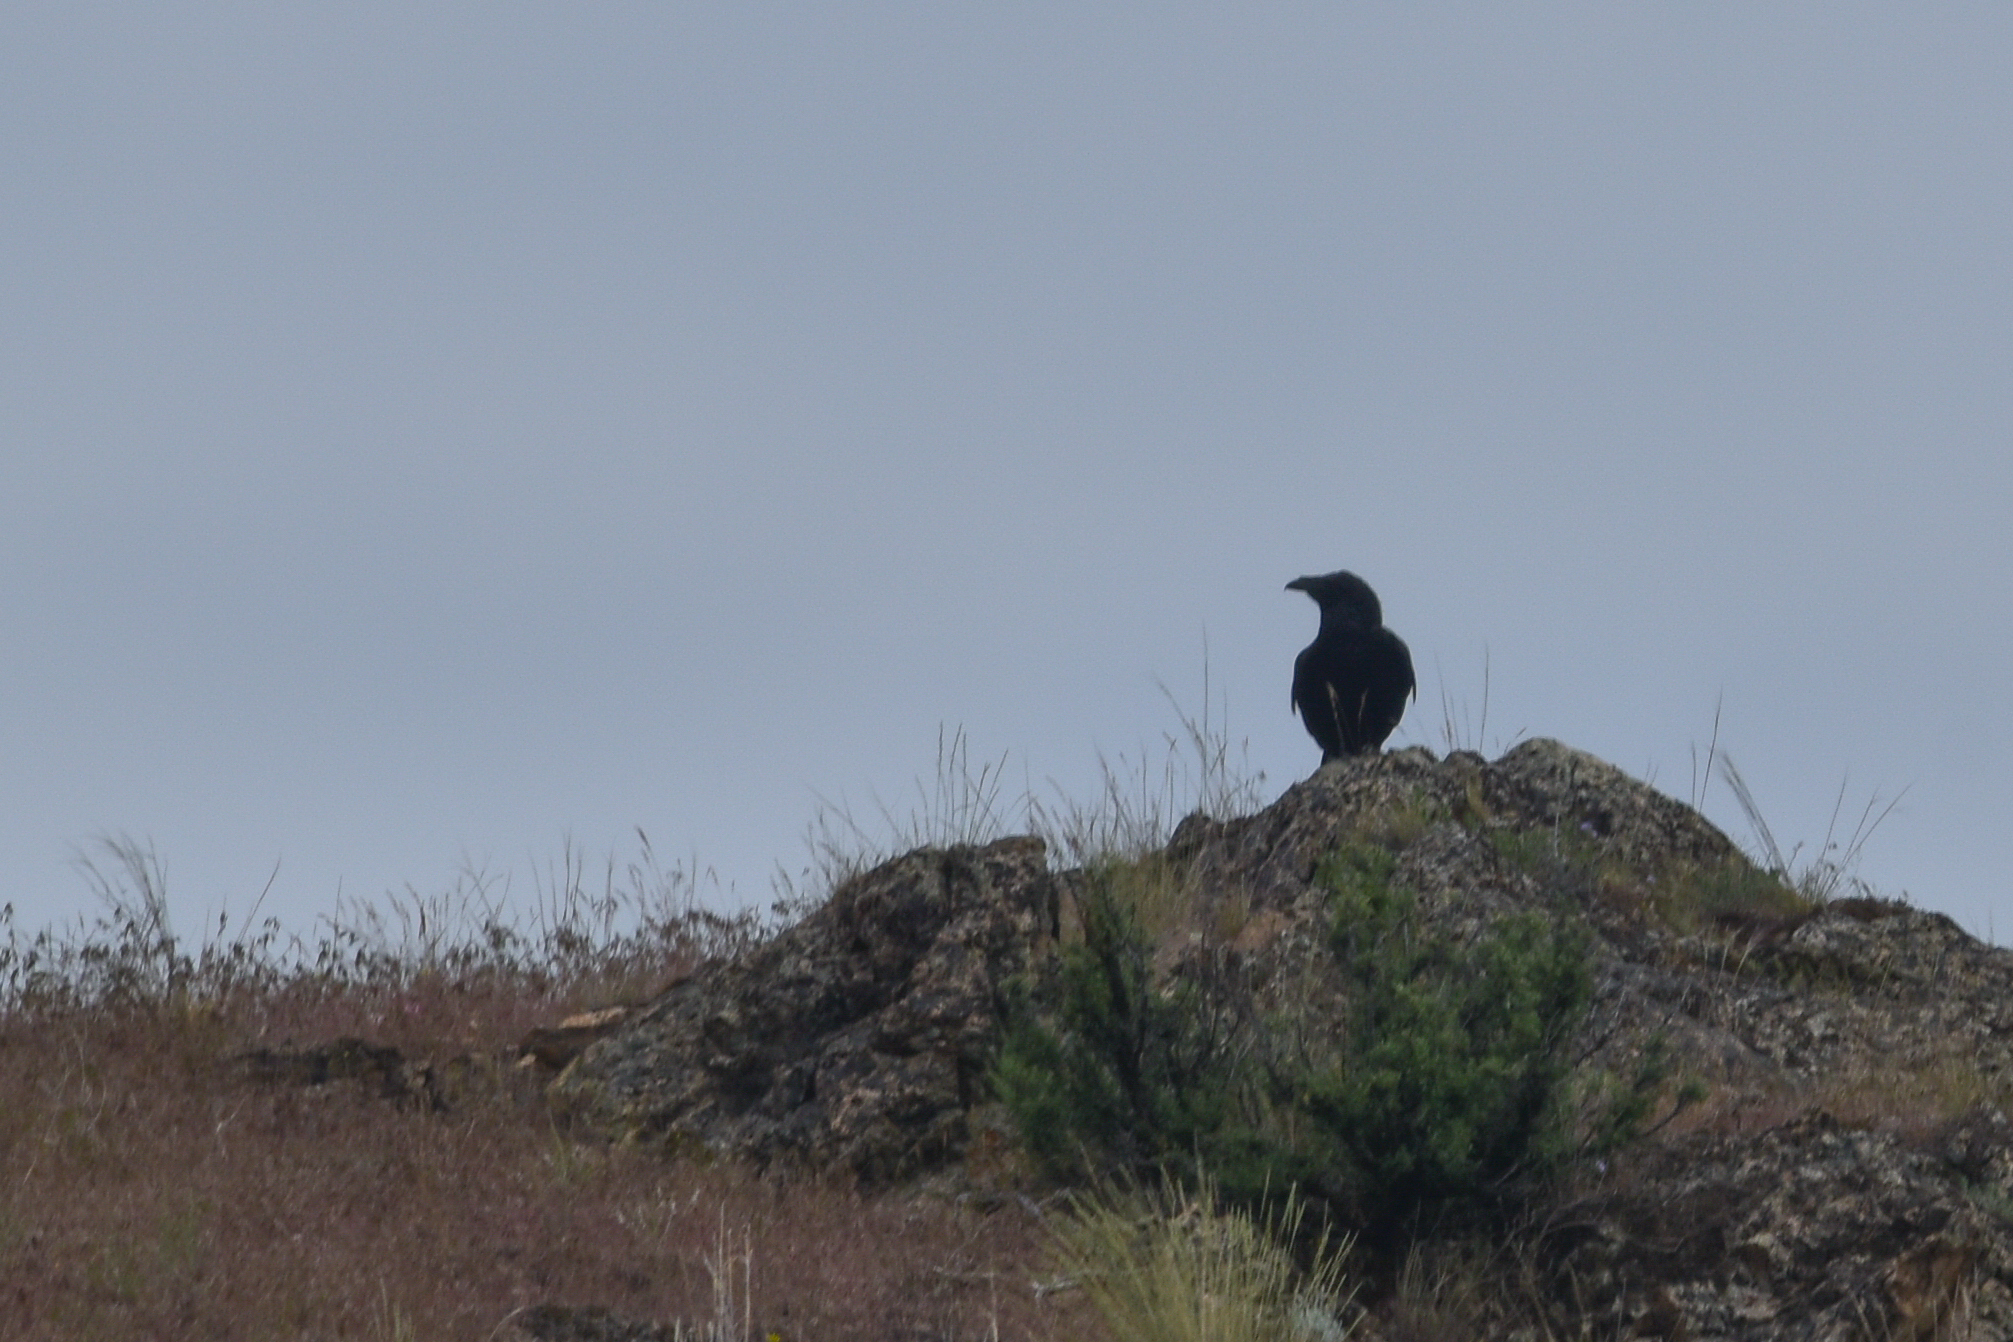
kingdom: Animalia
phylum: Chordata
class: Aves
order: Passeriformes
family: Corvidae
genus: Corvus
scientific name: Corvus corax
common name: Common raven
